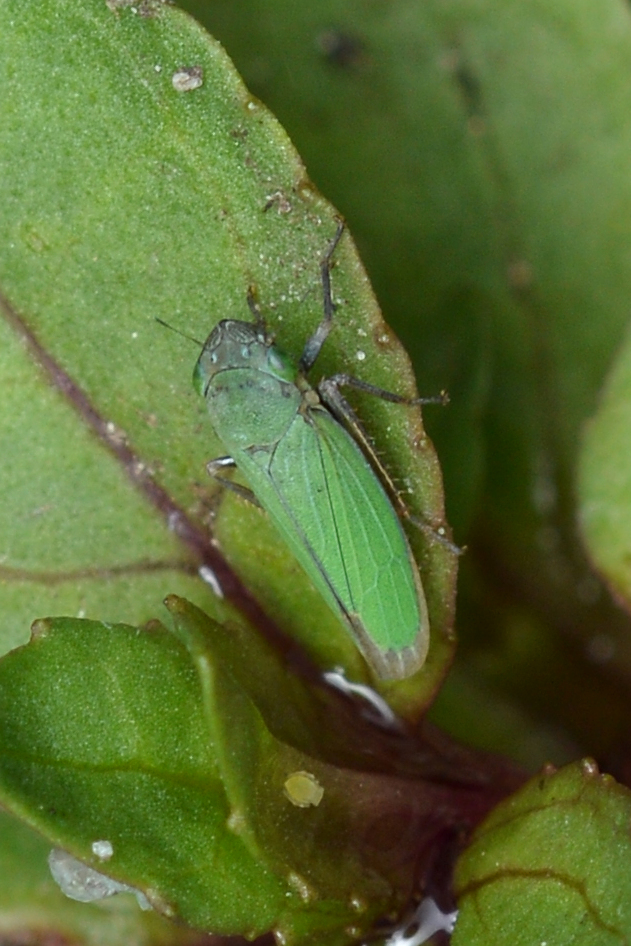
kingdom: Animalia
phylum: Arthropoda
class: Insecta
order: Hemiptera
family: Cicadellidae
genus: Helochara
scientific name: Helochara communis
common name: Bog leafhopper
